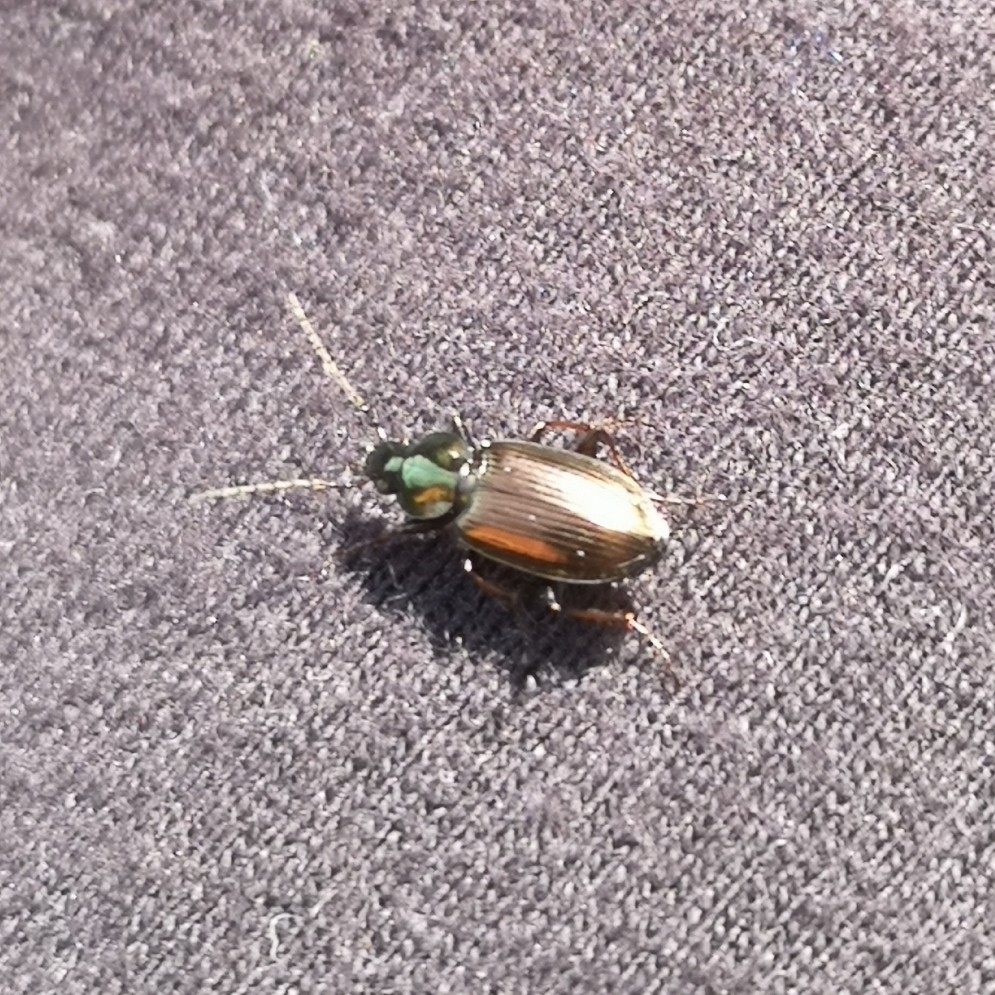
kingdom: Animalia
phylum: Arthropoda
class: Insecta
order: Coleoptera
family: Carabidae
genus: Agonum
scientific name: Agonum muelleri
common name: Müller's harp ground beetle
